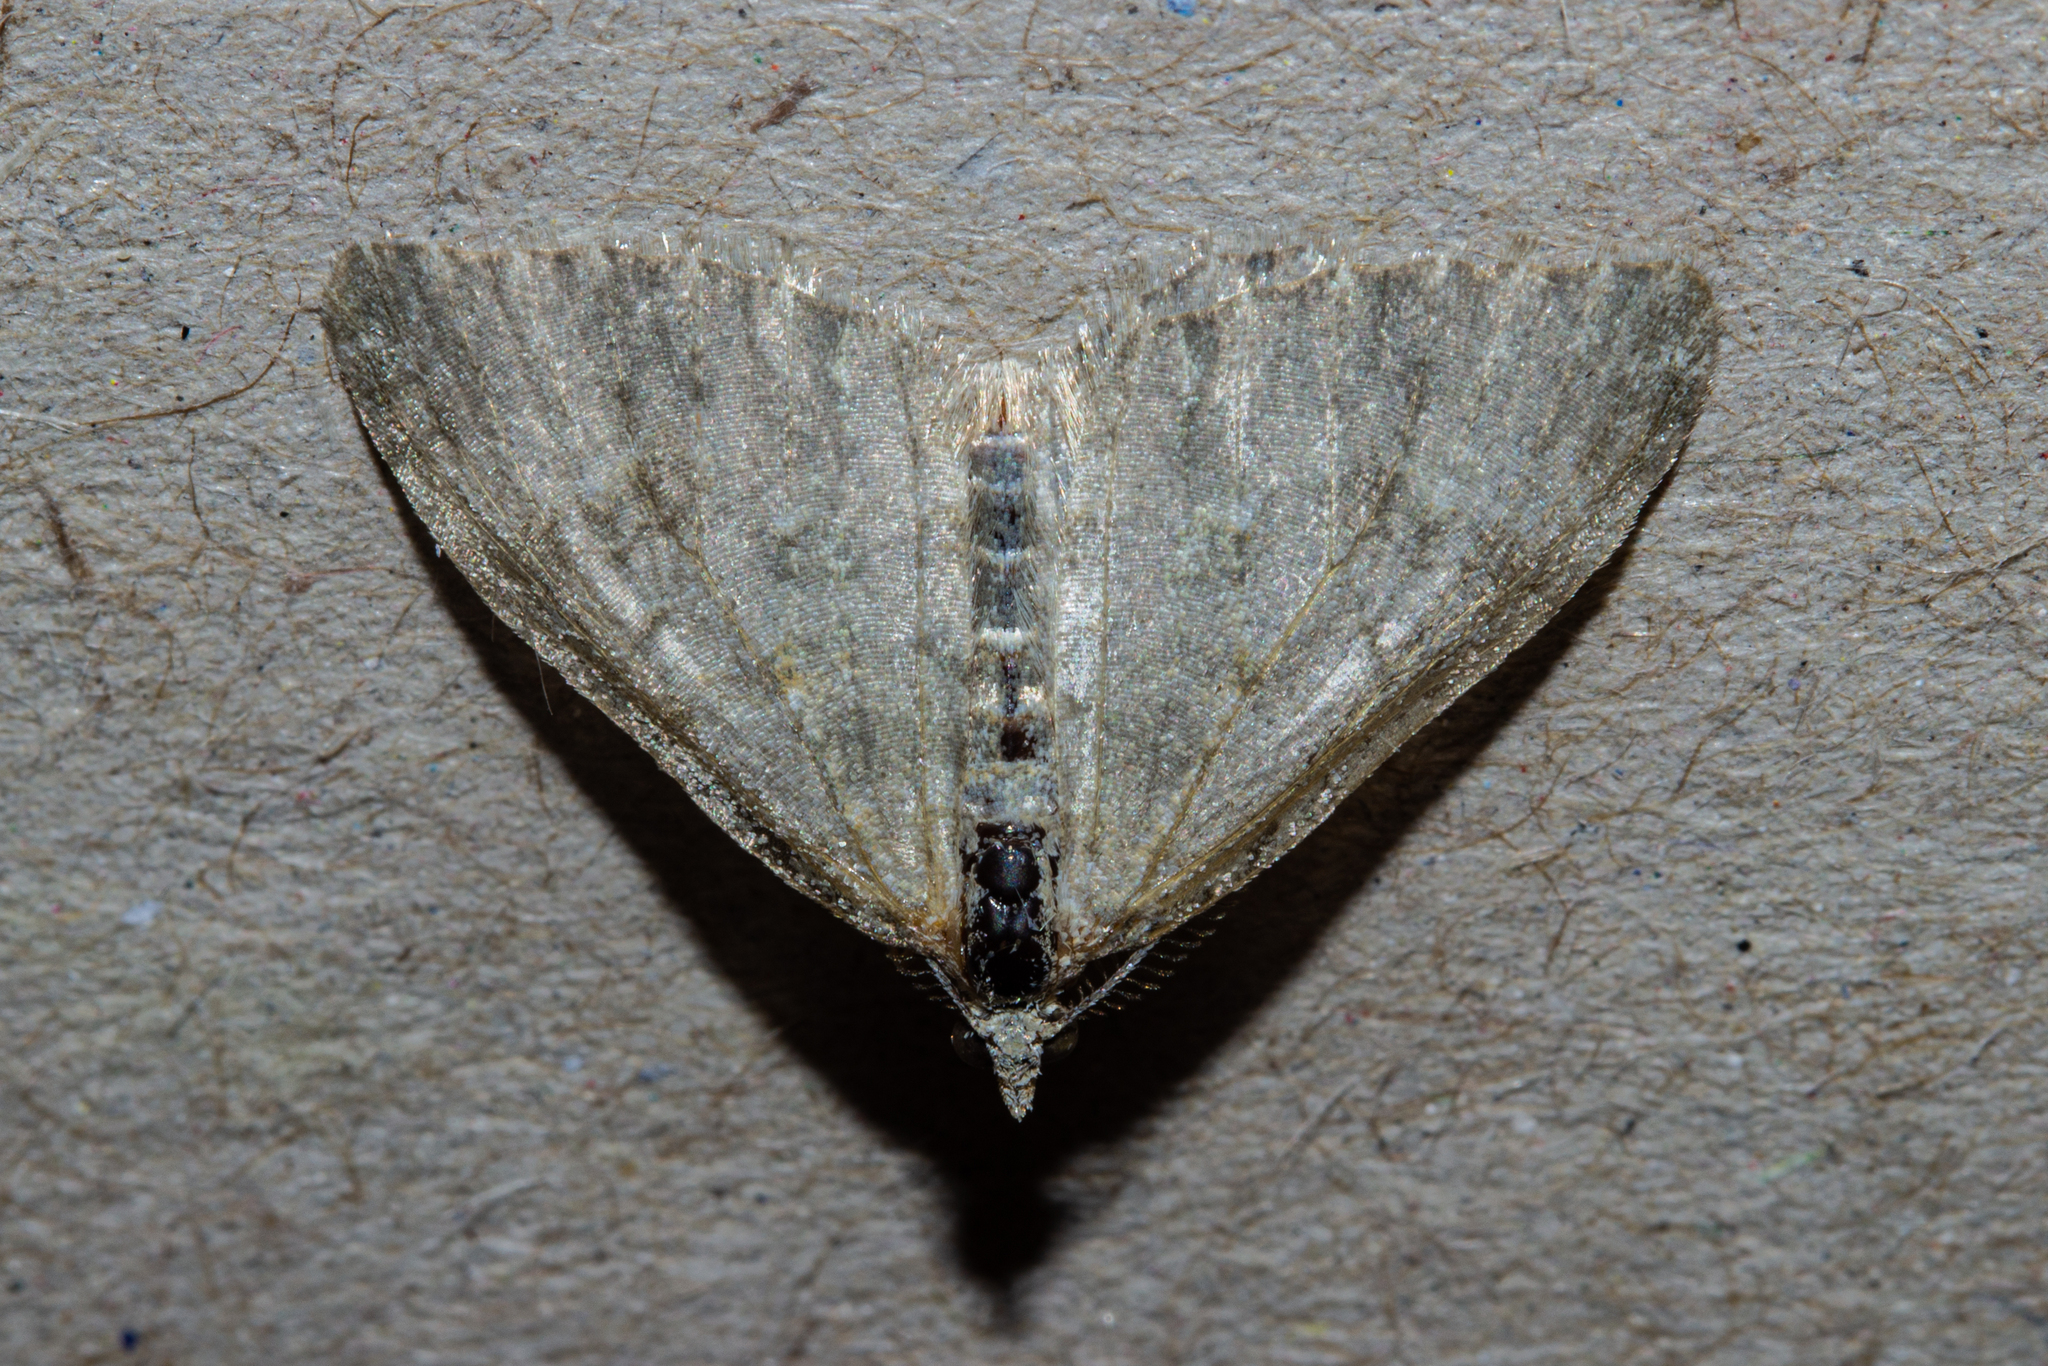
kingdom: Animalia
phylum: Arthropoda
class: Insecta
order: Lepidoptera
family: Geometridae
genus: Helastia
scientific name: Helastia corcularia
